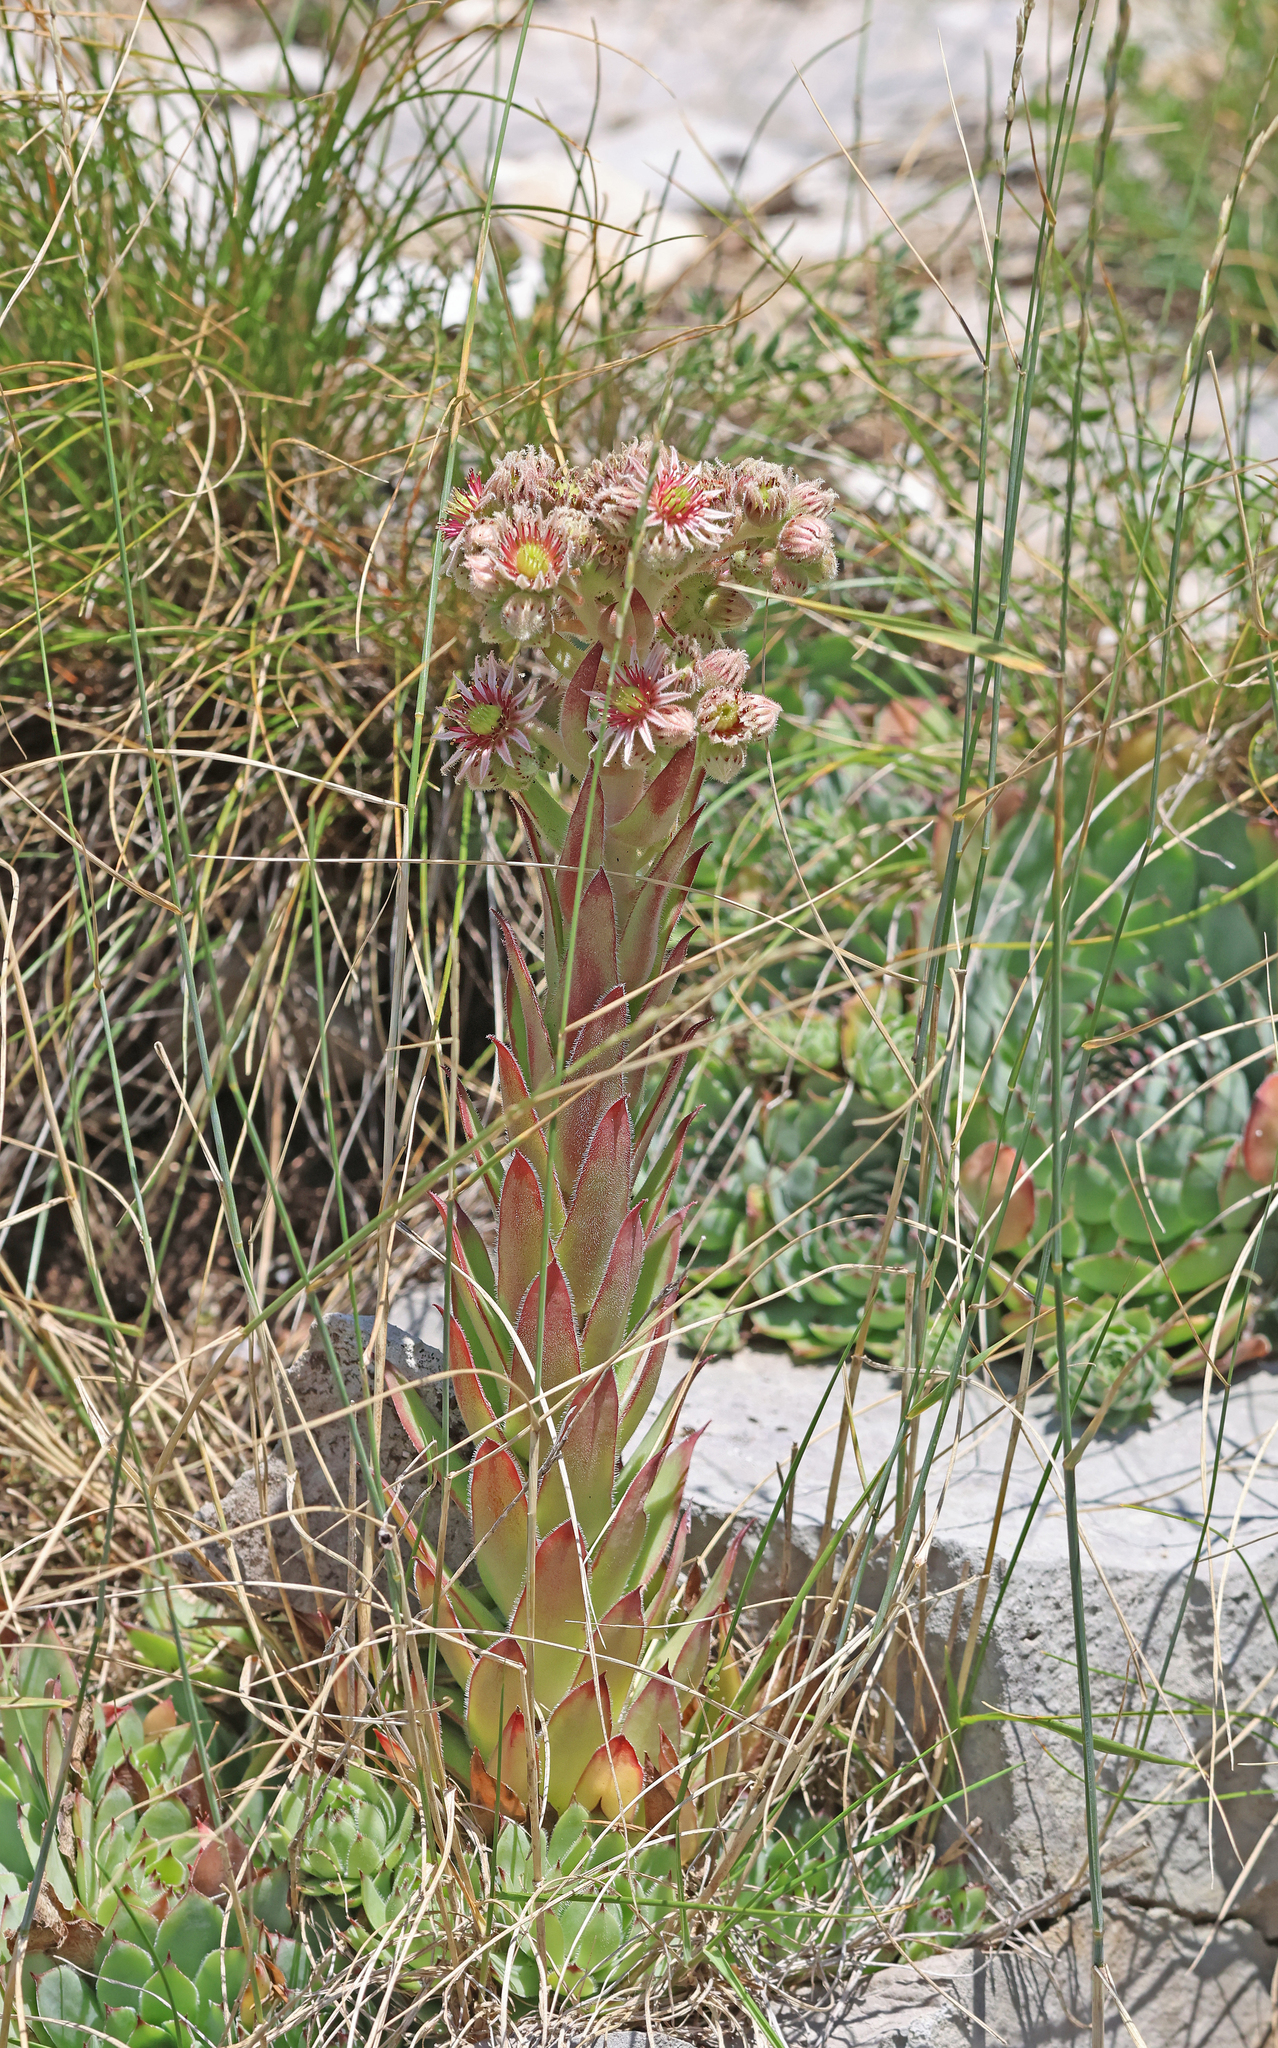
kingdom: Plantae
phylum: Tracheophyta
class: Magnoliopsida
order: Saxifragales
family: Crassulaceae
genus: Sempervivum
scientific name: Sempervivum tectorum
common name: House-leek
